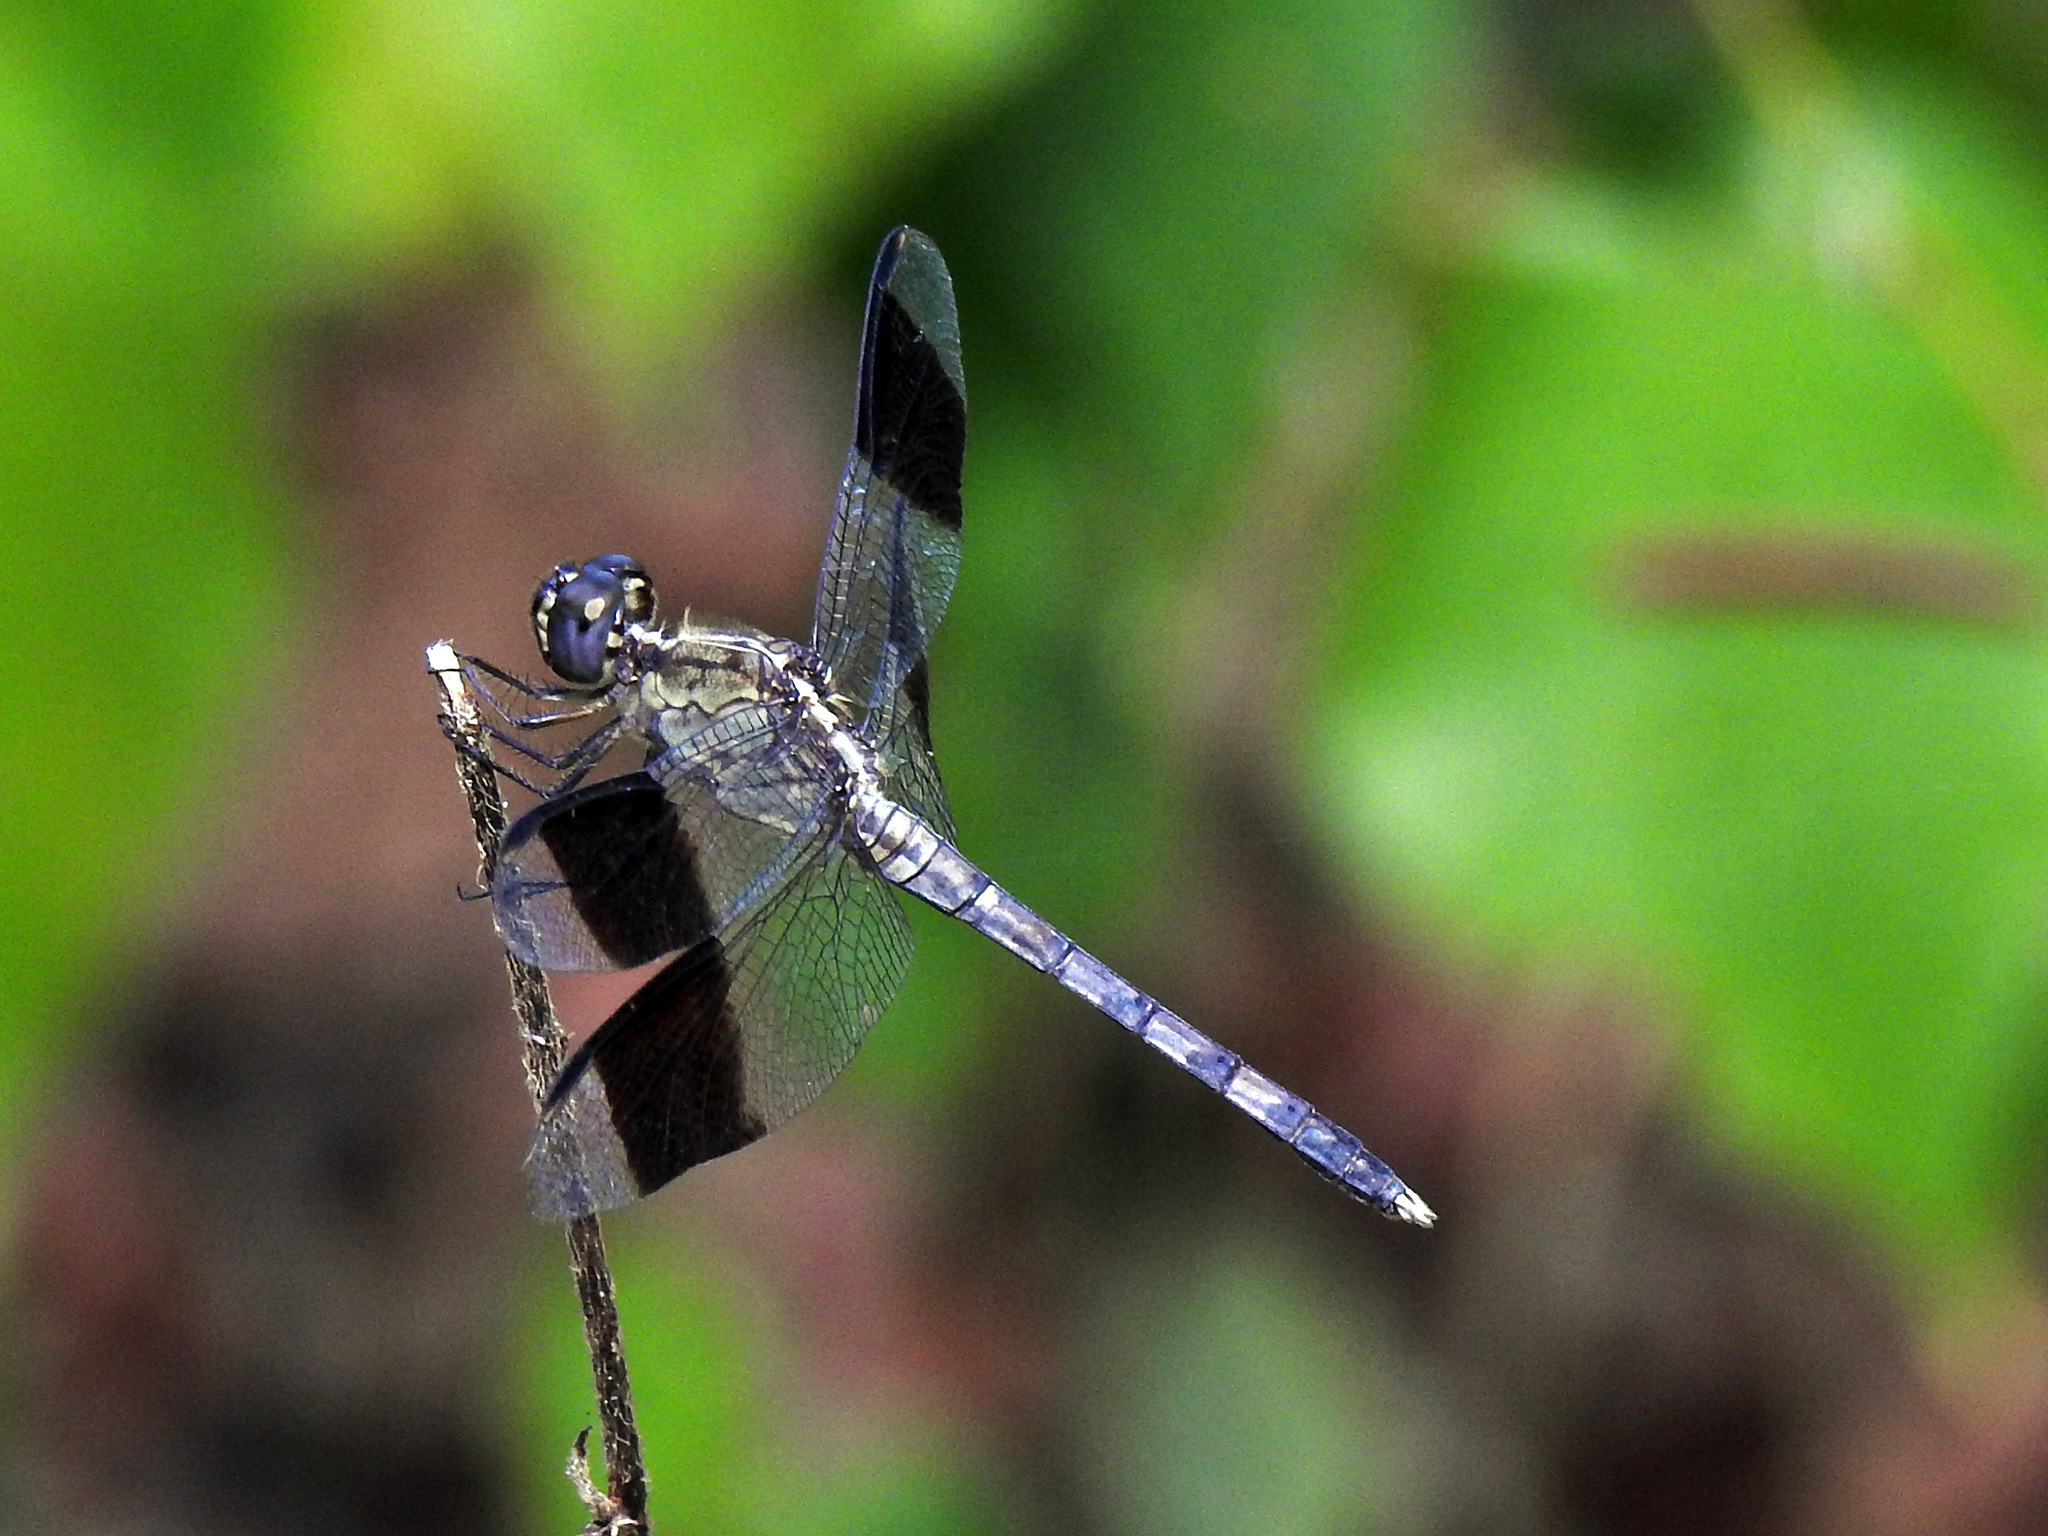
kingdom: Animalia
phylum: Arthropoda
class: Insecta
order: Odonata
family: Libellulidae
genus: Erythrodiplax
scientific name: Erythrodiplax umbrata
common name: Band-winged dragonlet
